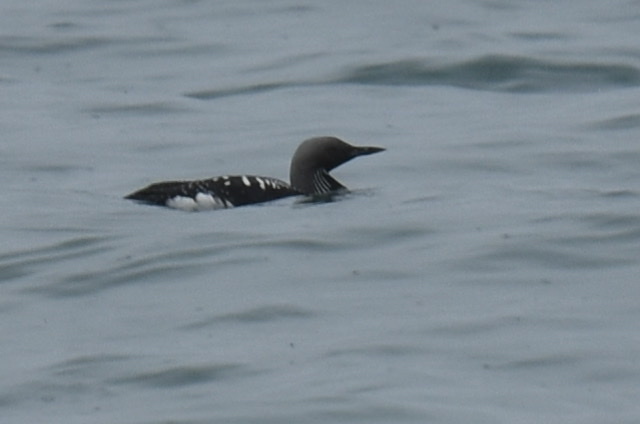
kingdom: Animalia
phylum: Chordata
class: Aves
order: Gaviiformes
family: Gaviidae
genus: Gavia
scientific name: Gavia arctica
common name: Black-throated loon
